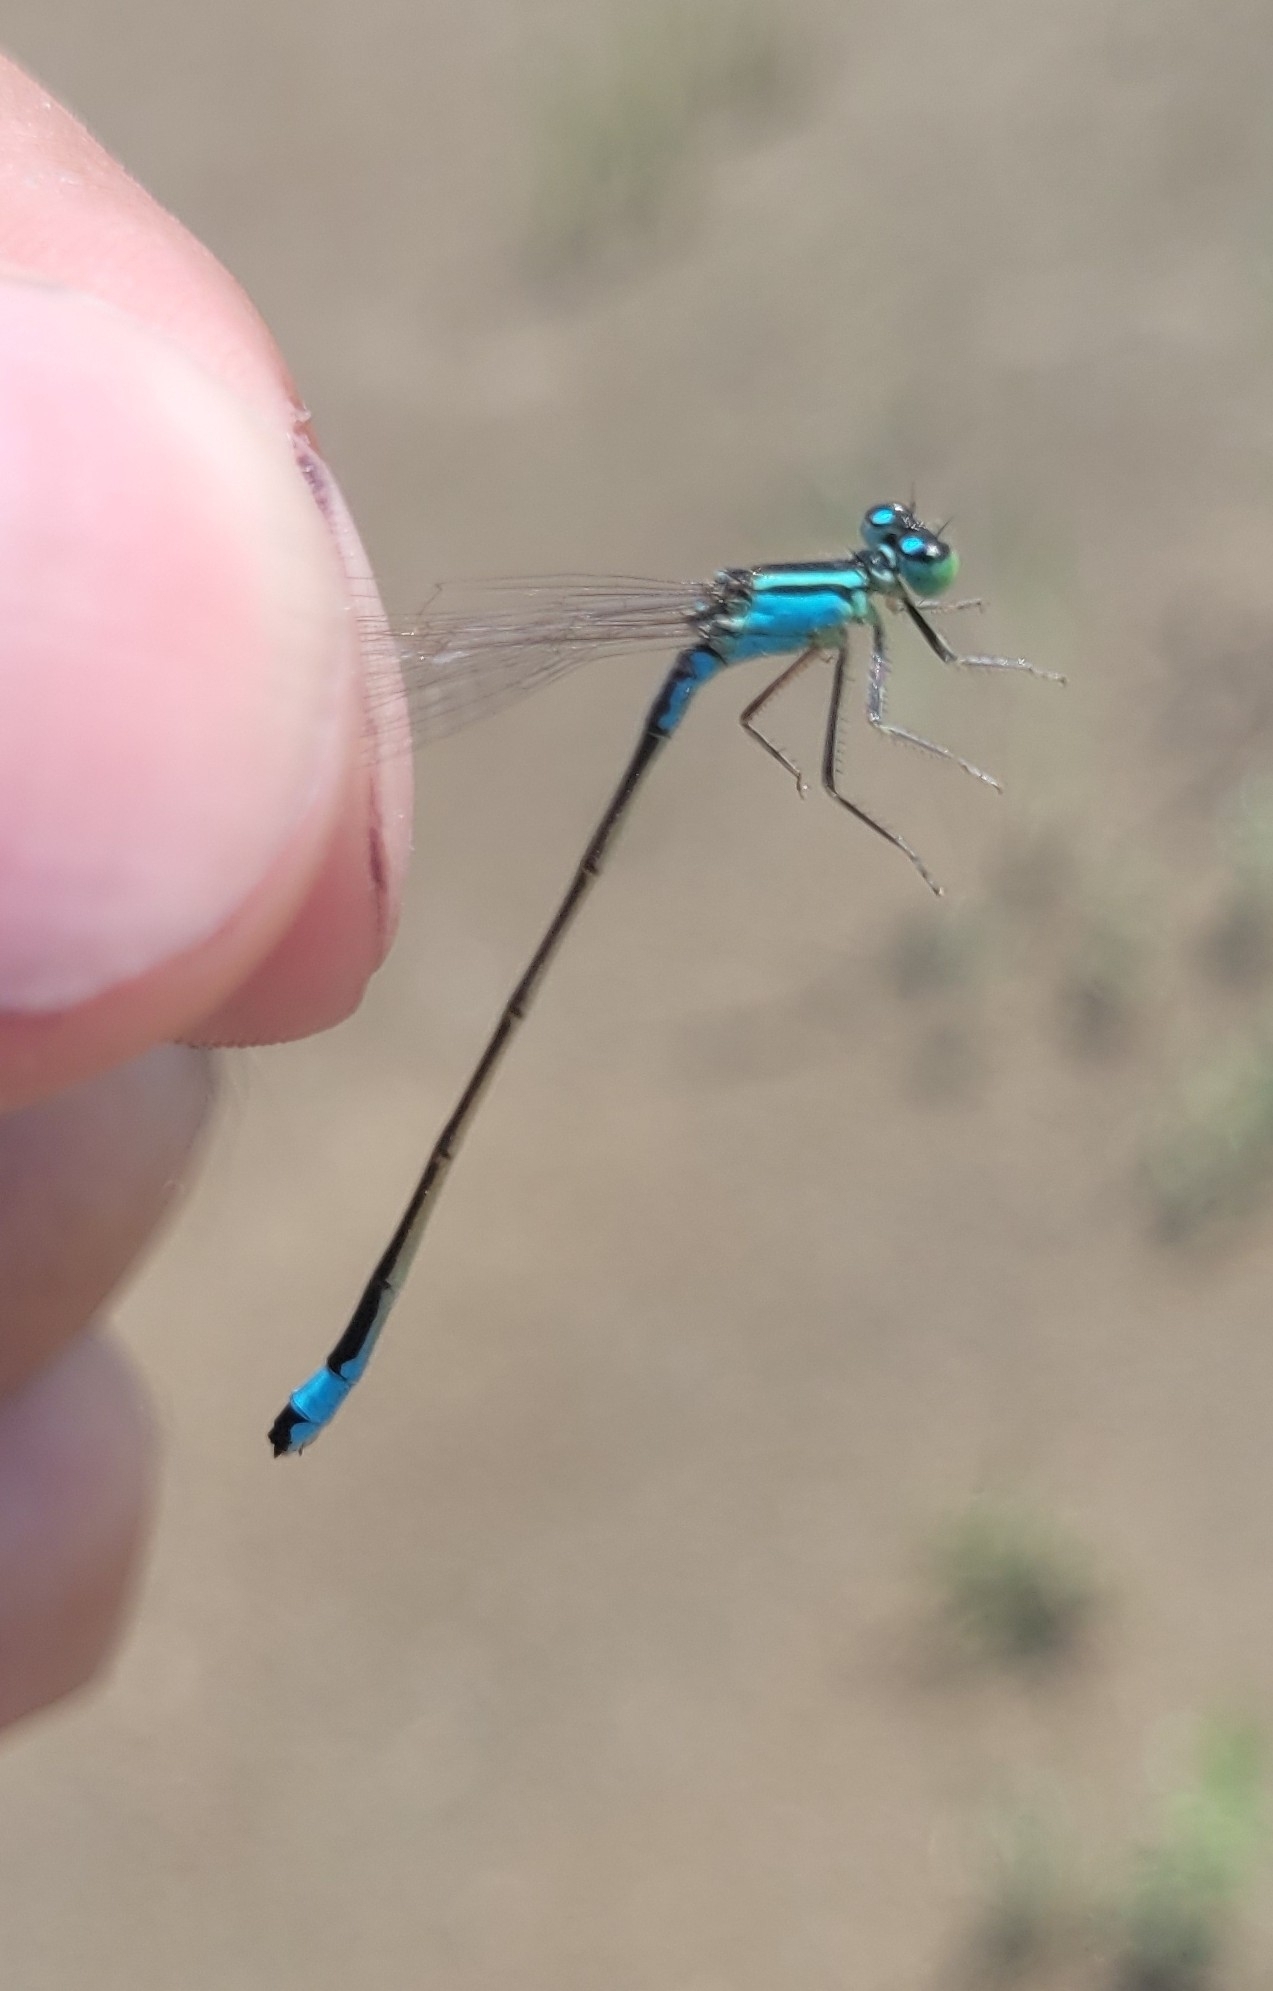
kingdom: Animalia
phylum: Arthropoda
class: Insecta
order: Odonata
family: Coenagrionidae
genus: Ischnura
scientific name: Ischnura elegans
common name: Blue-tailed damselfly
